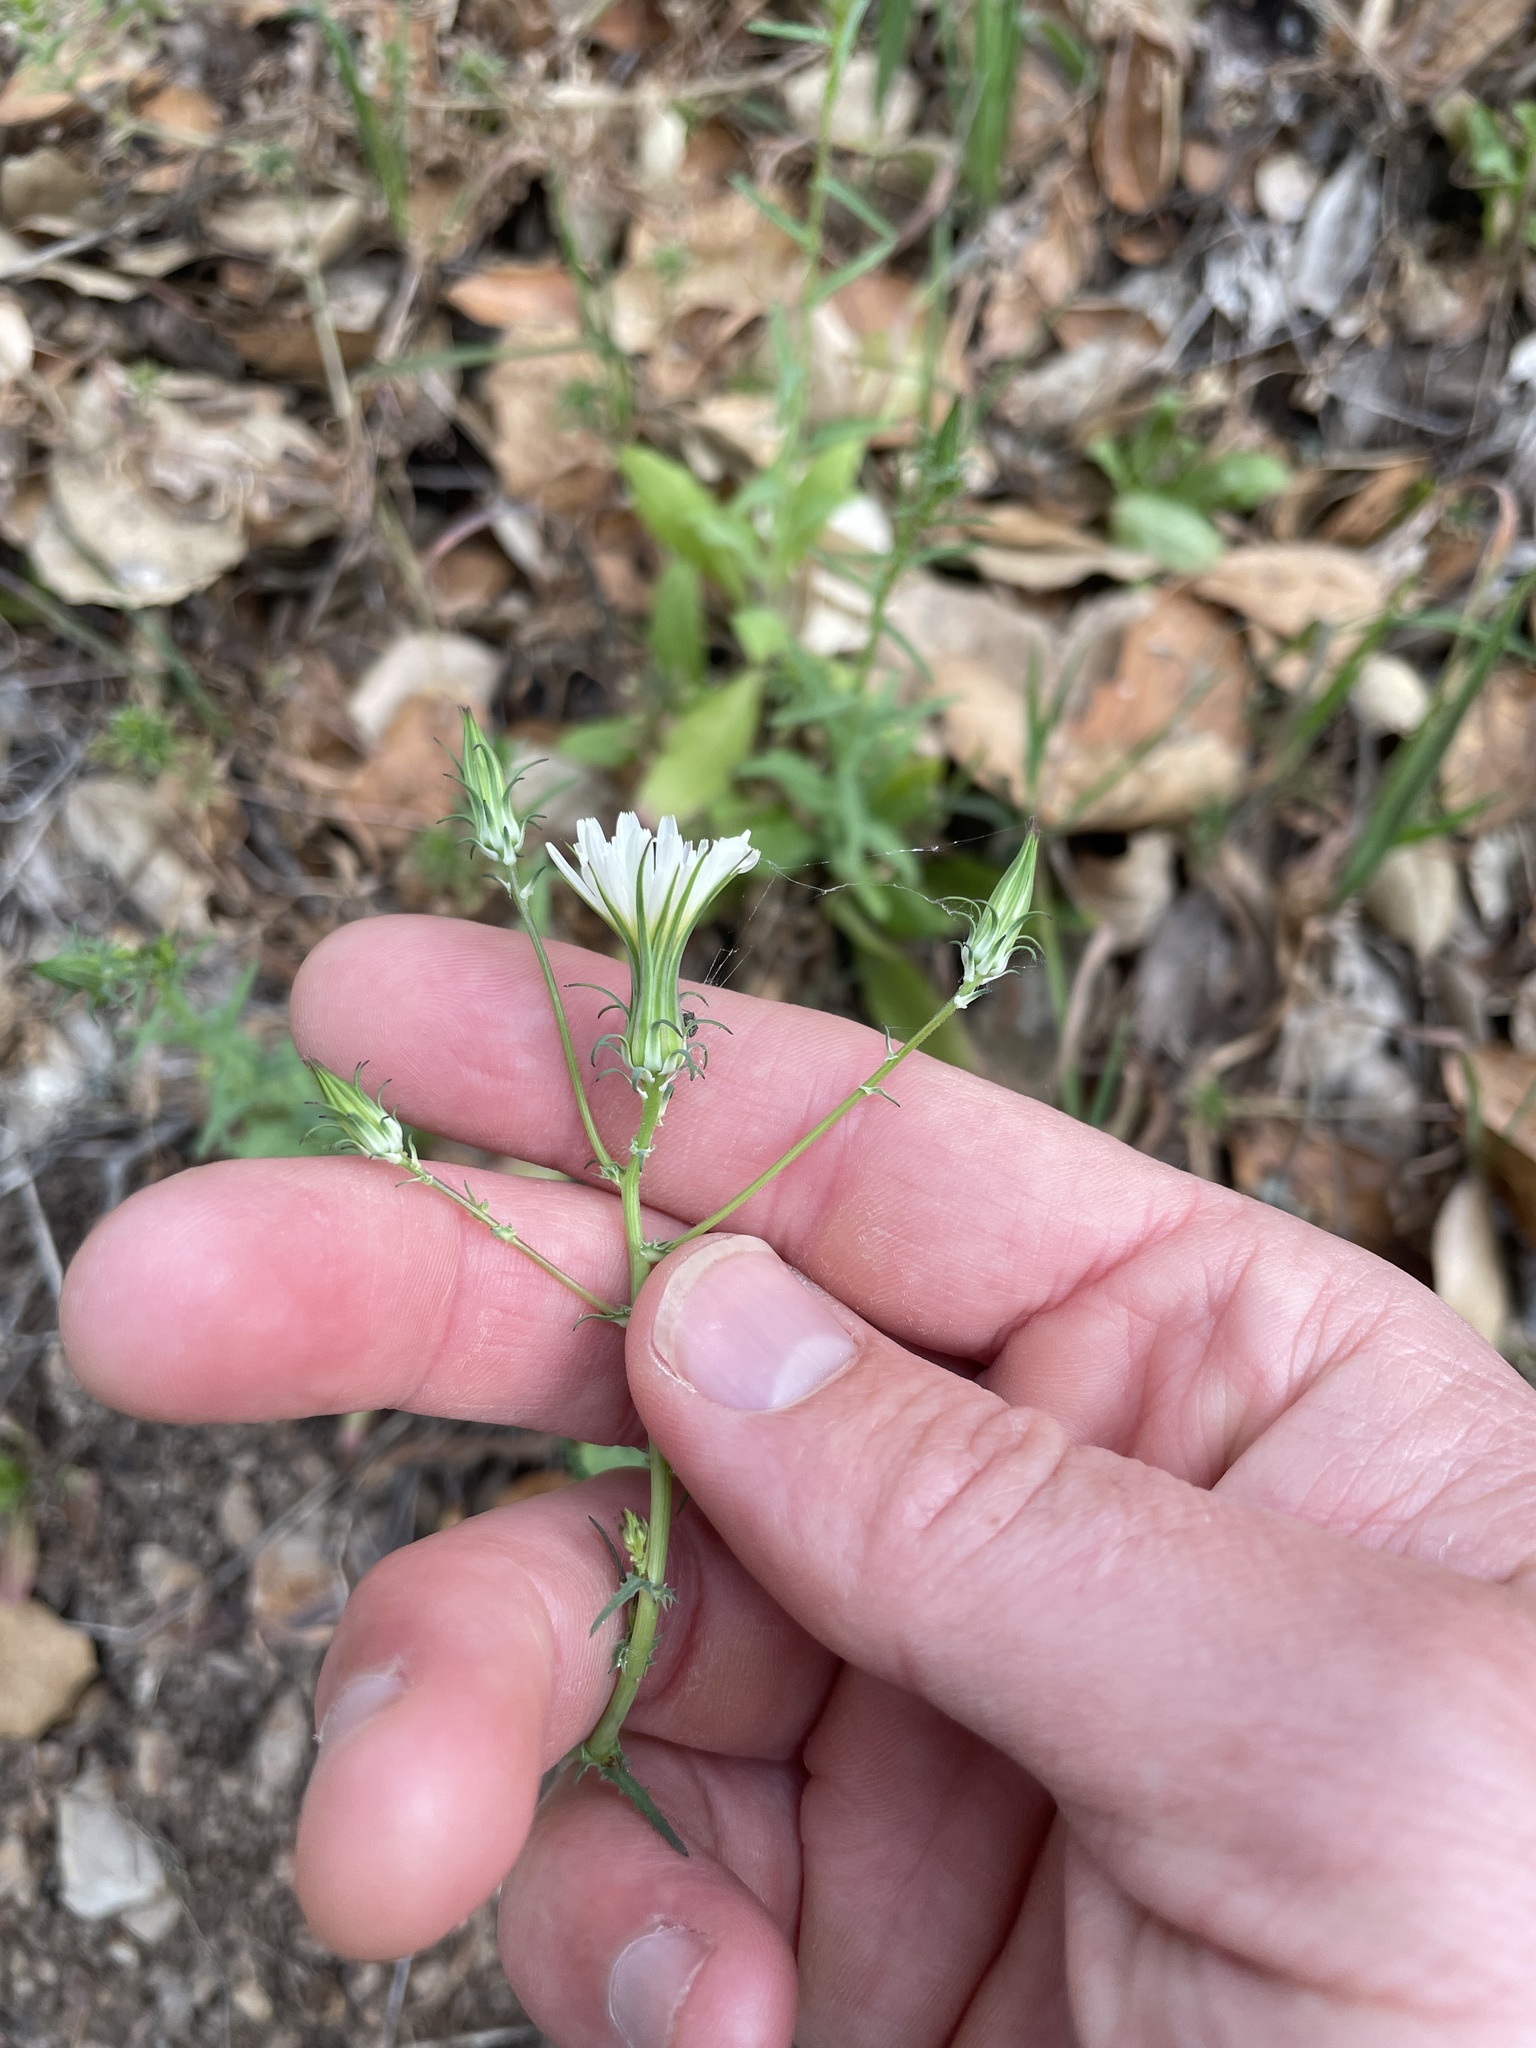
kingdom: Plantae
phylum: Tracheophyta
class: Magnoliopsida
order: Asterales
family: Asteraceae
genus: Rafinesquia
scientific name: Rafinesquia californica
